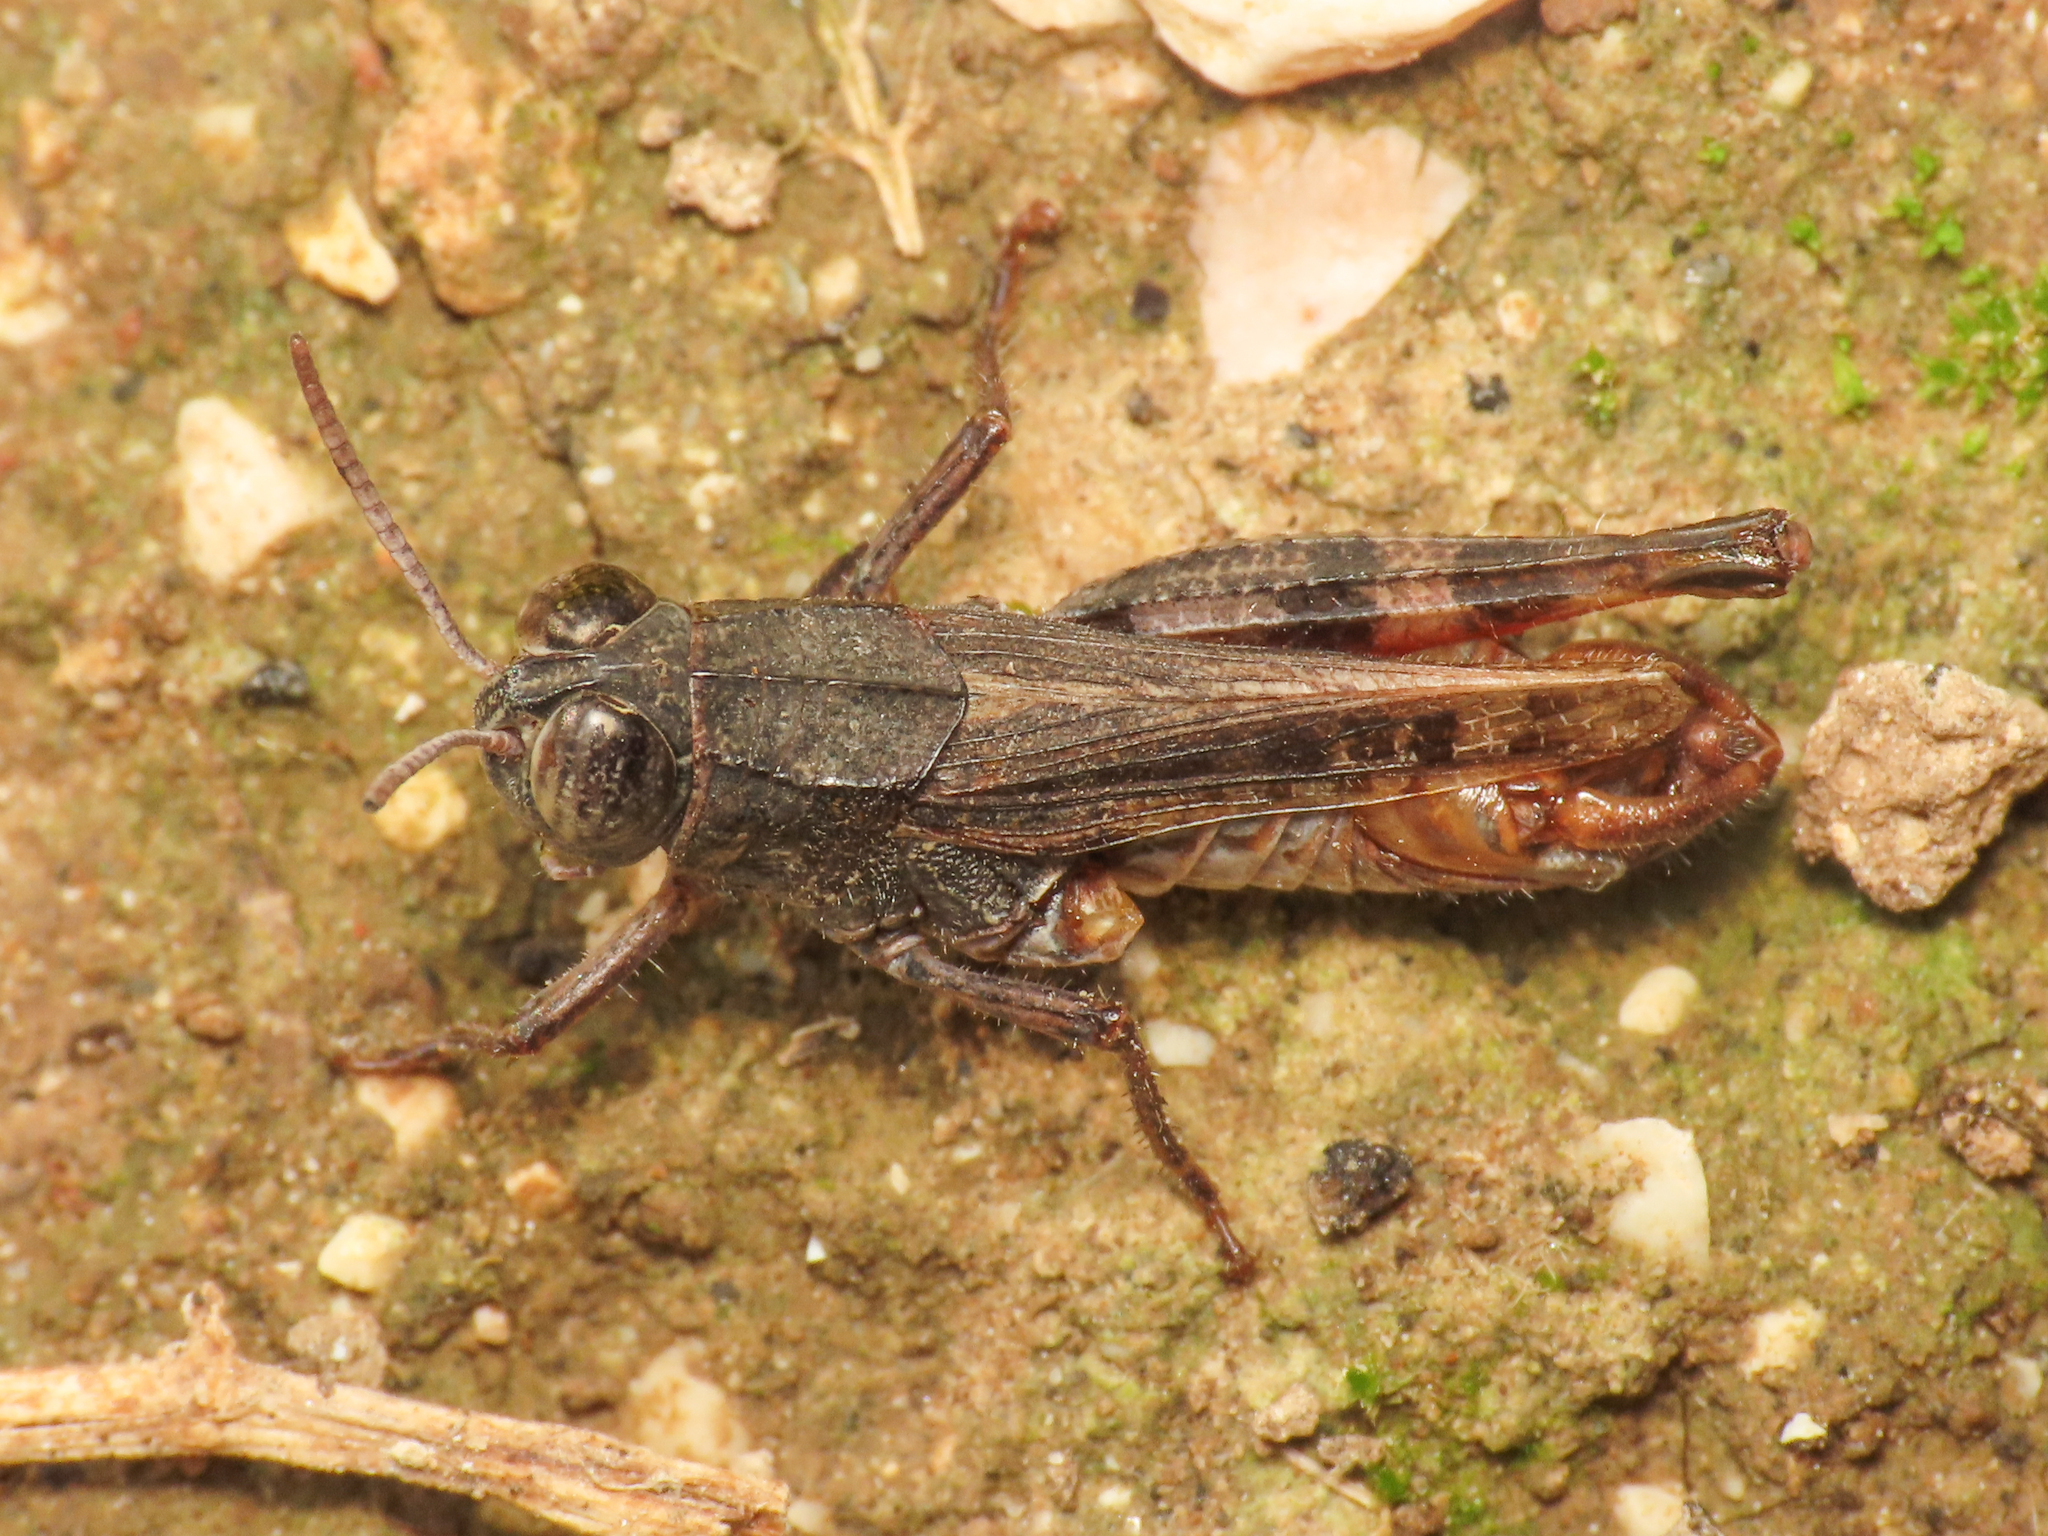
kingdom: Animalia
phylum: Arthropoda
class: Insecta
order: Orthoptera
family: Acrididae
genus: Calliptamus
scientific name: Calliptamus siciliae
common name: Pygmy pincer grasshopper
